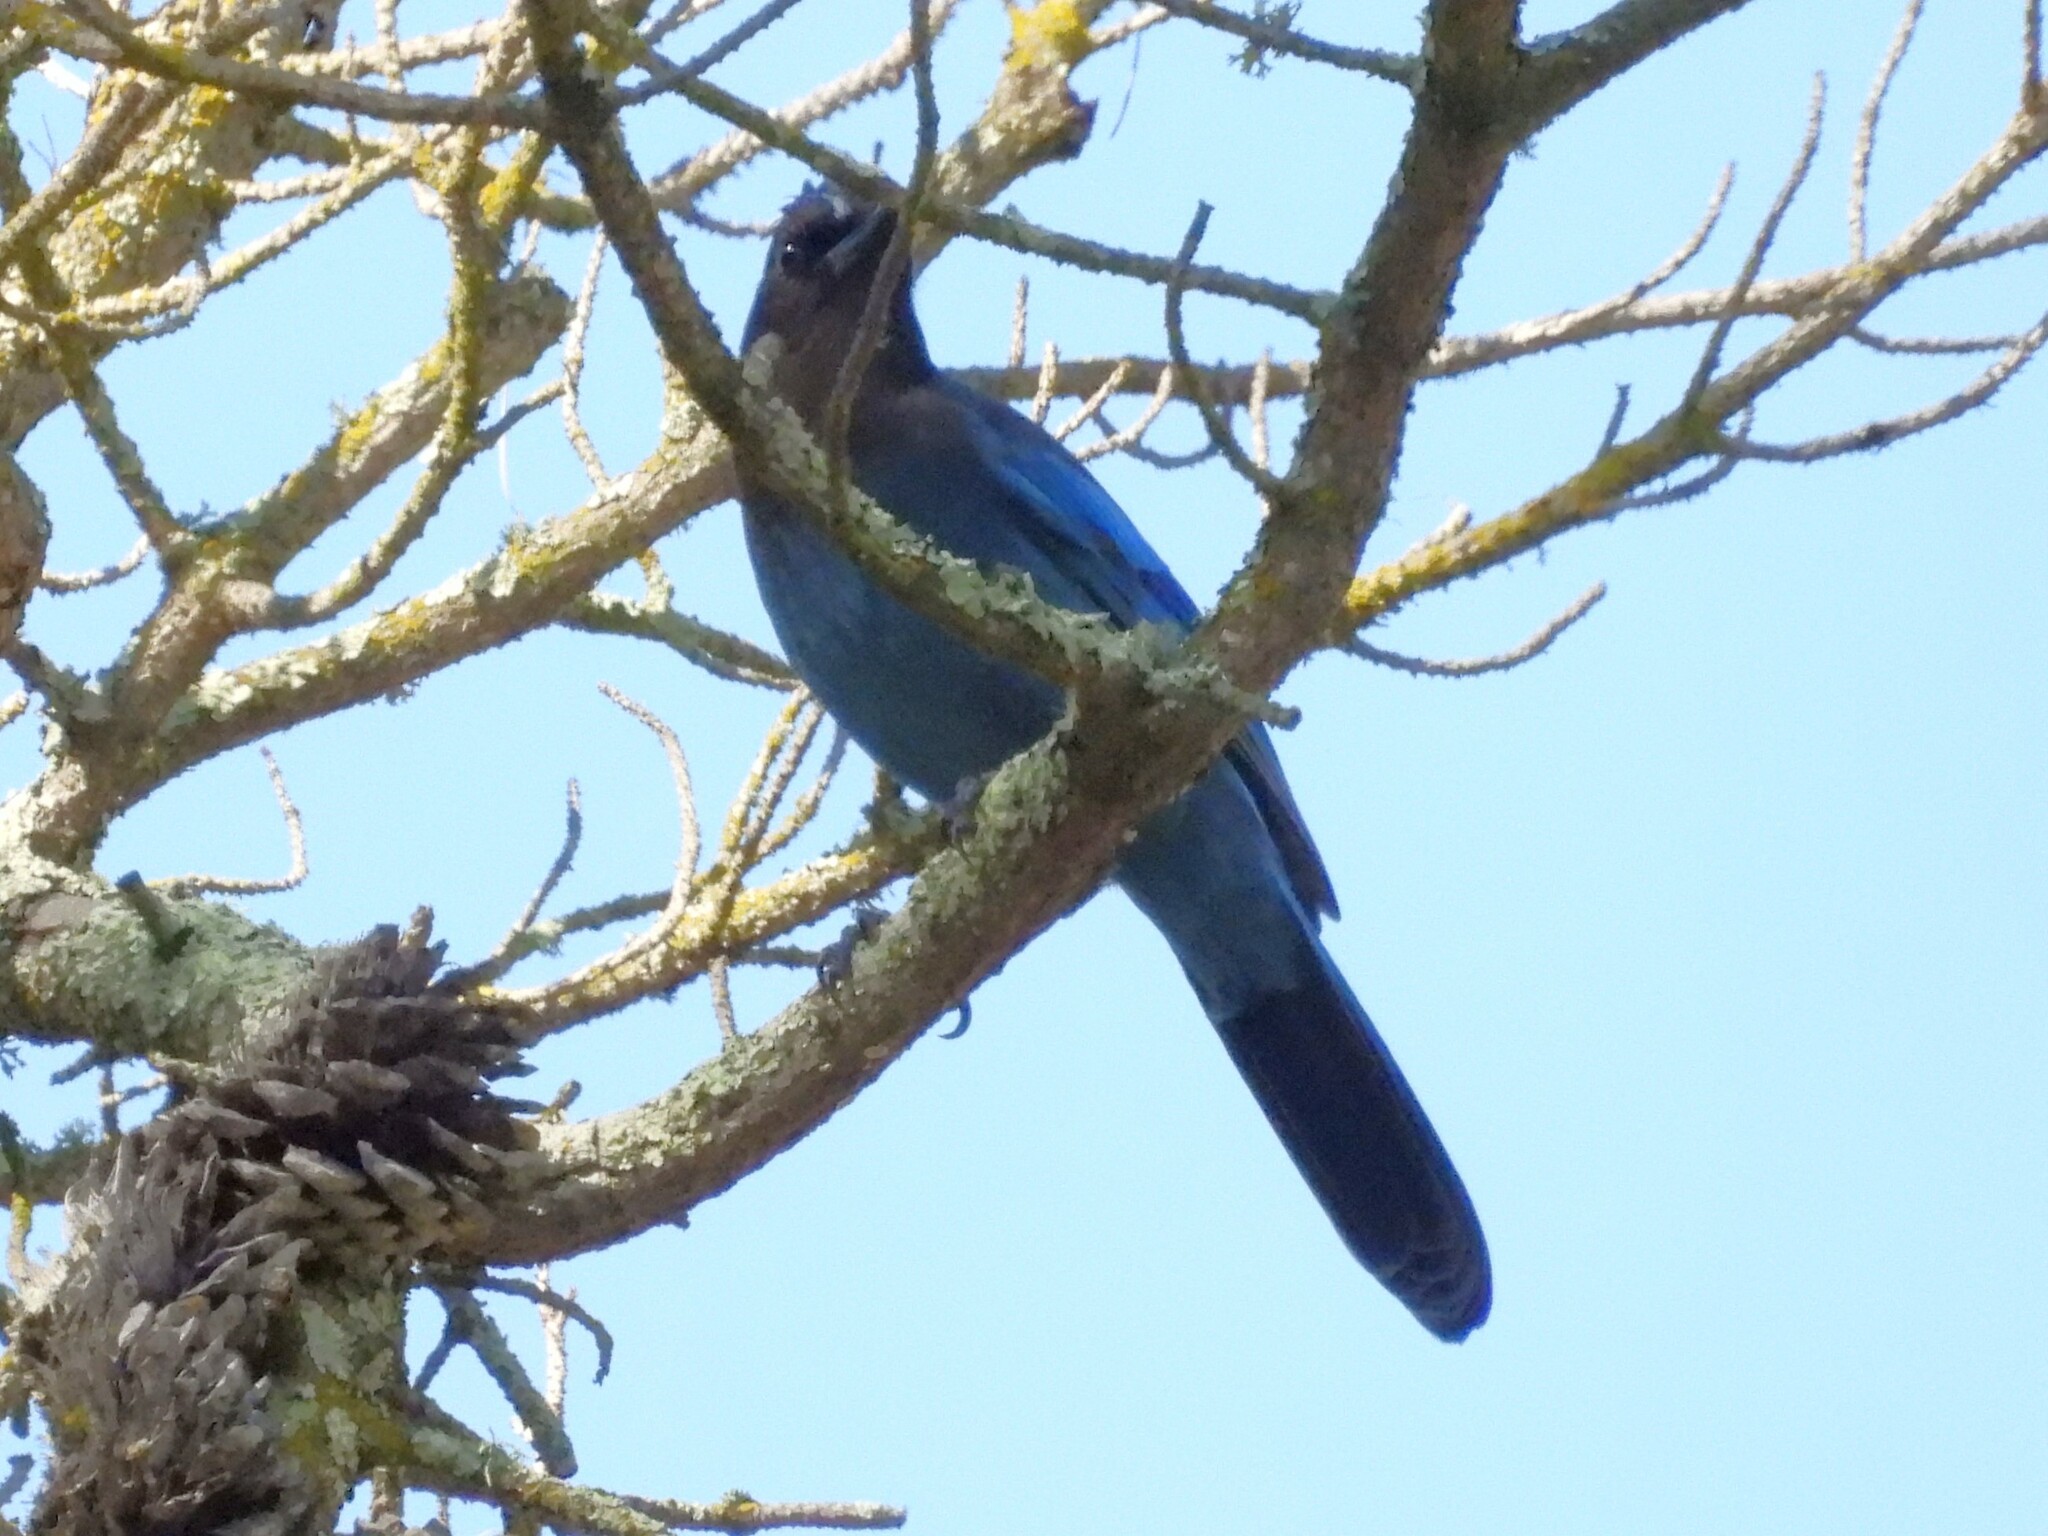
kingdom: Animalia
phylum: Chordata
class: Aves
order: Passeriformes
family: Corvidae
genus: Cyanocitta
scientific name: Cyanocitta stelleri
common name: Steller's jay
